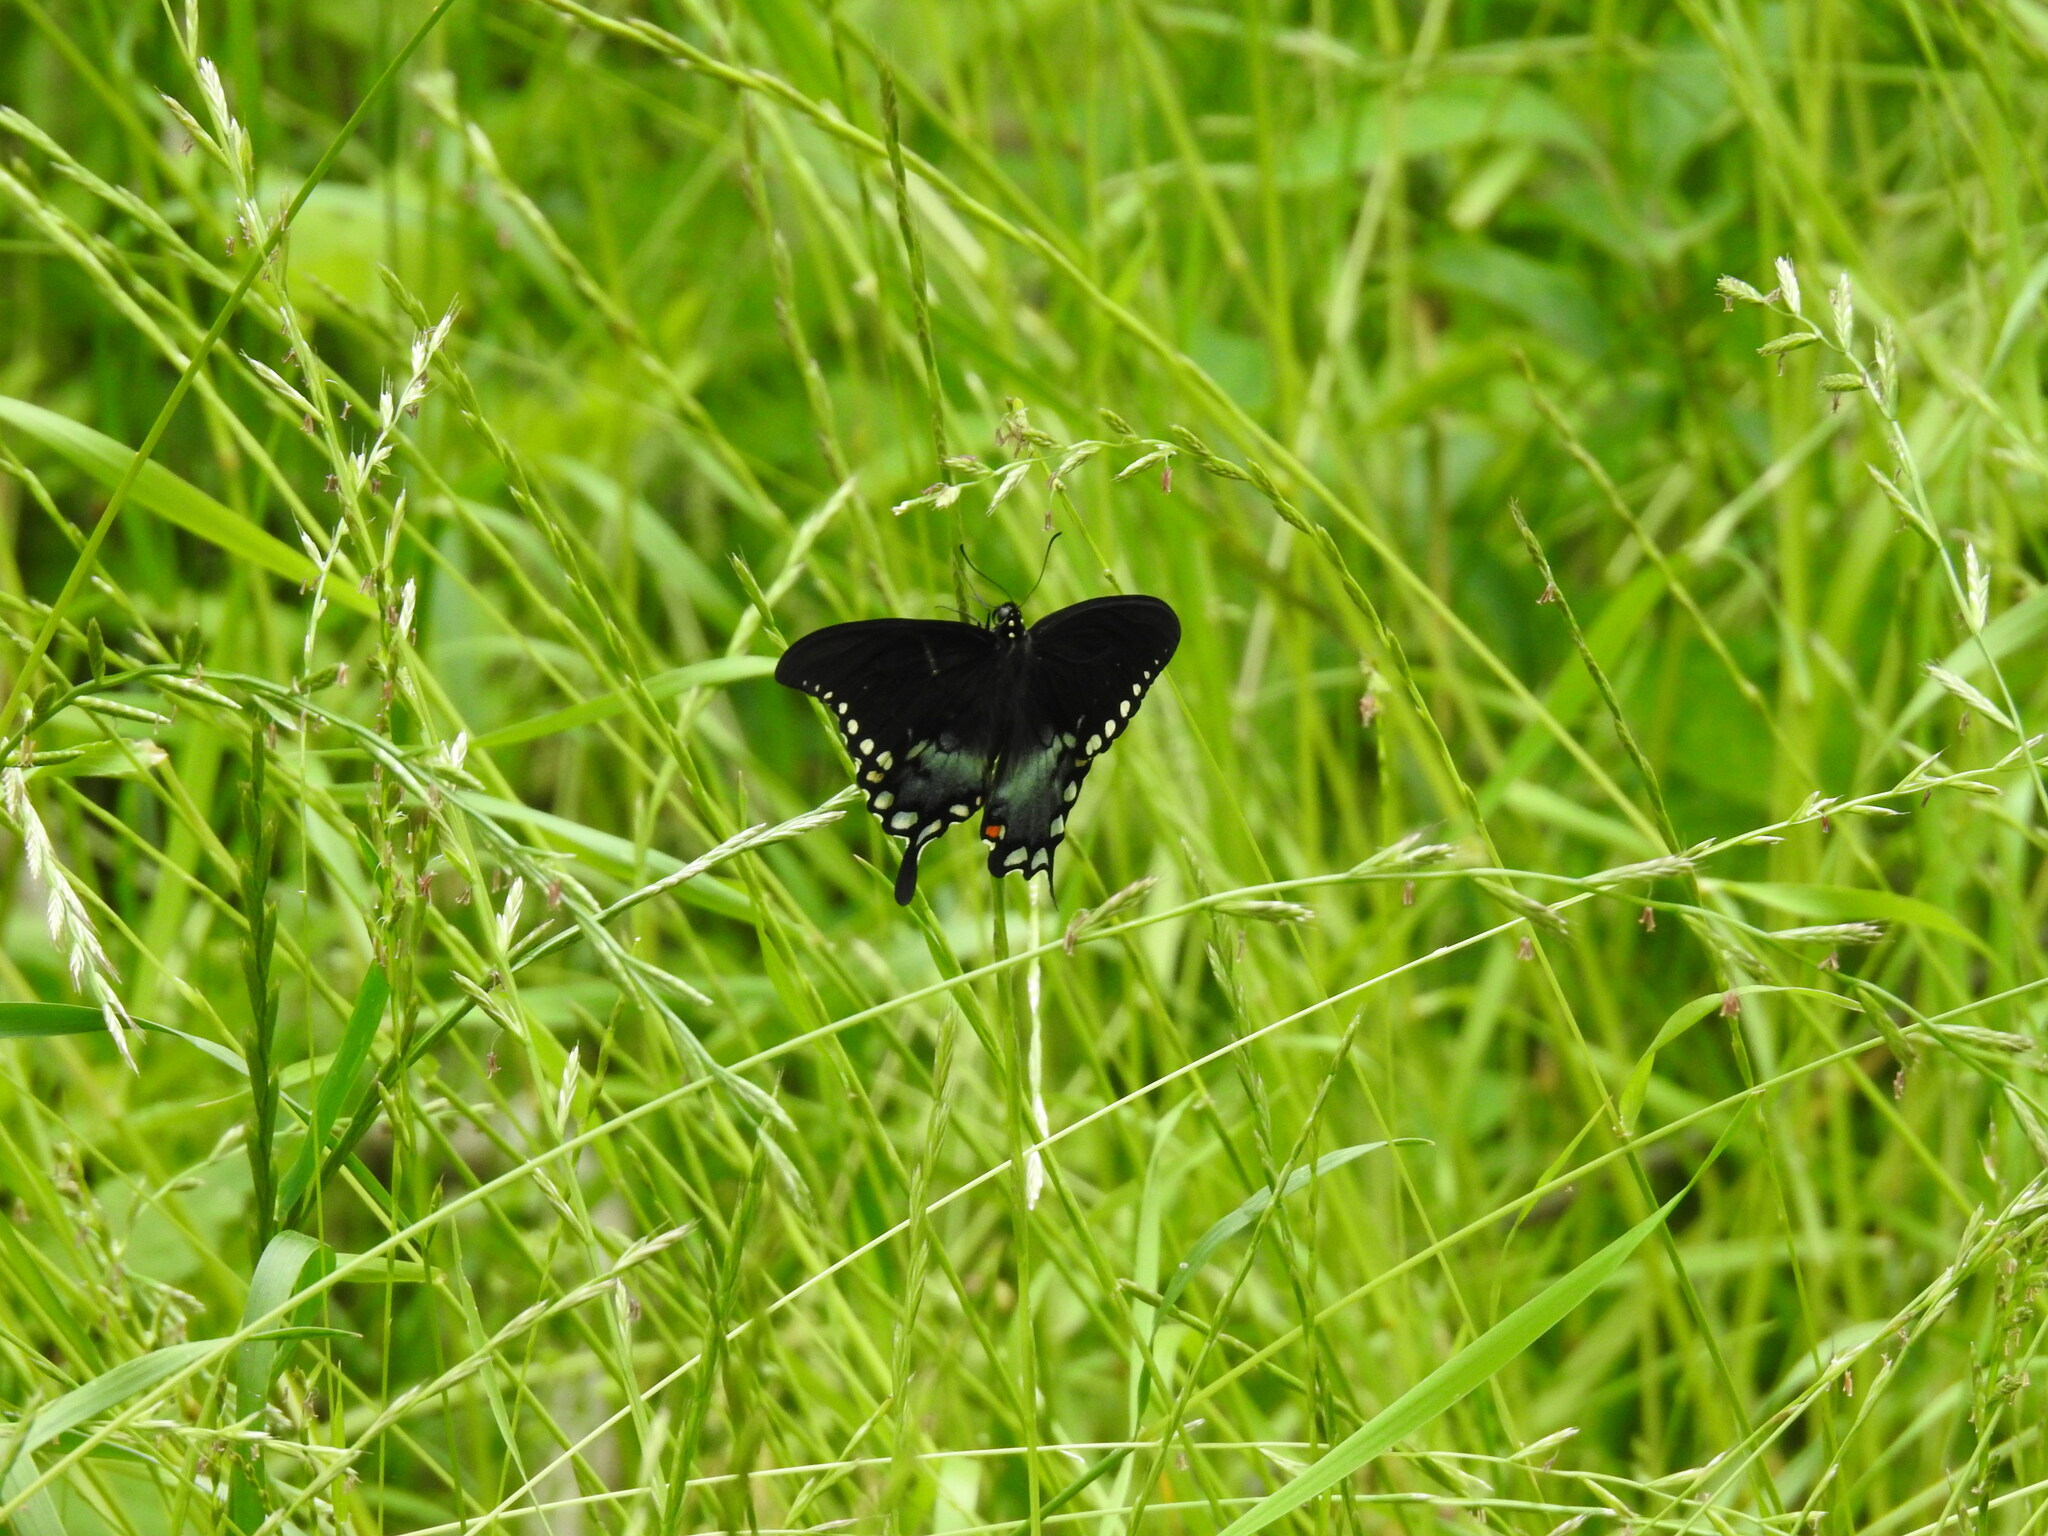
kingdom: Animalia
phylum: Arthropoda
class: Insecta
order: Lepidoptera
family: Papilionidae
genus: Papilio
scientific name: Papilio troilus
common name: Spicebush swallowtail
